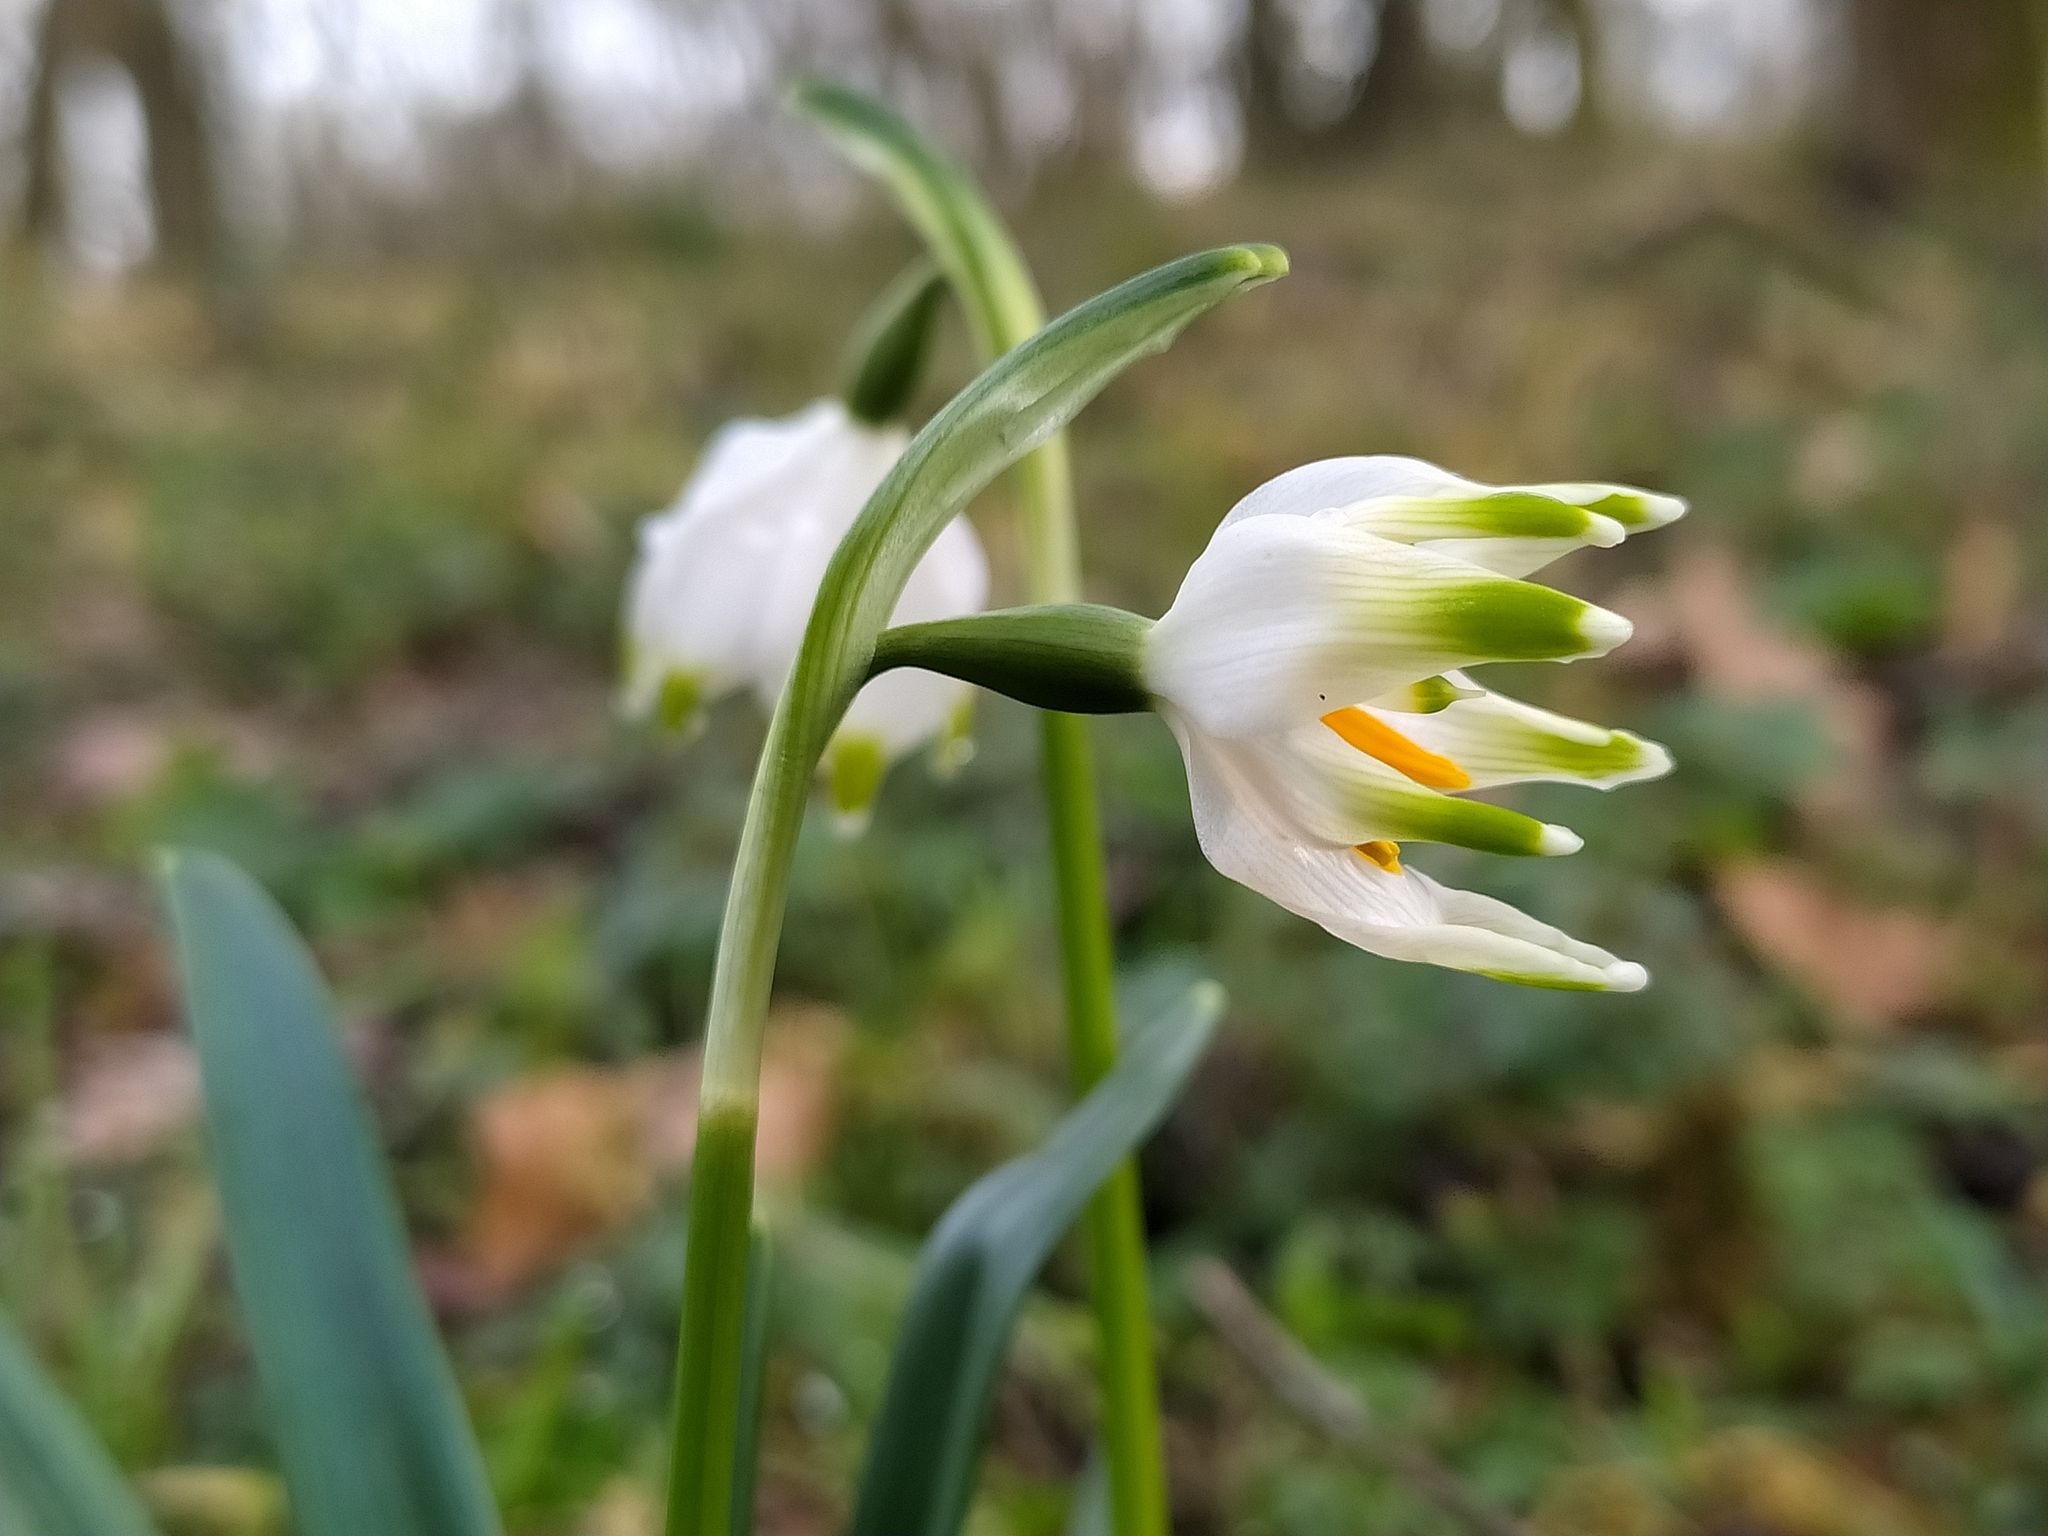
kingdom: Plantae
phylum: Tracheophyta
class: Liliopsida
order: Asparagales
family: Amaryllidaceae
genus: Leucojum
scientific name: Leucojum vernum
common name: Spring snowflake
